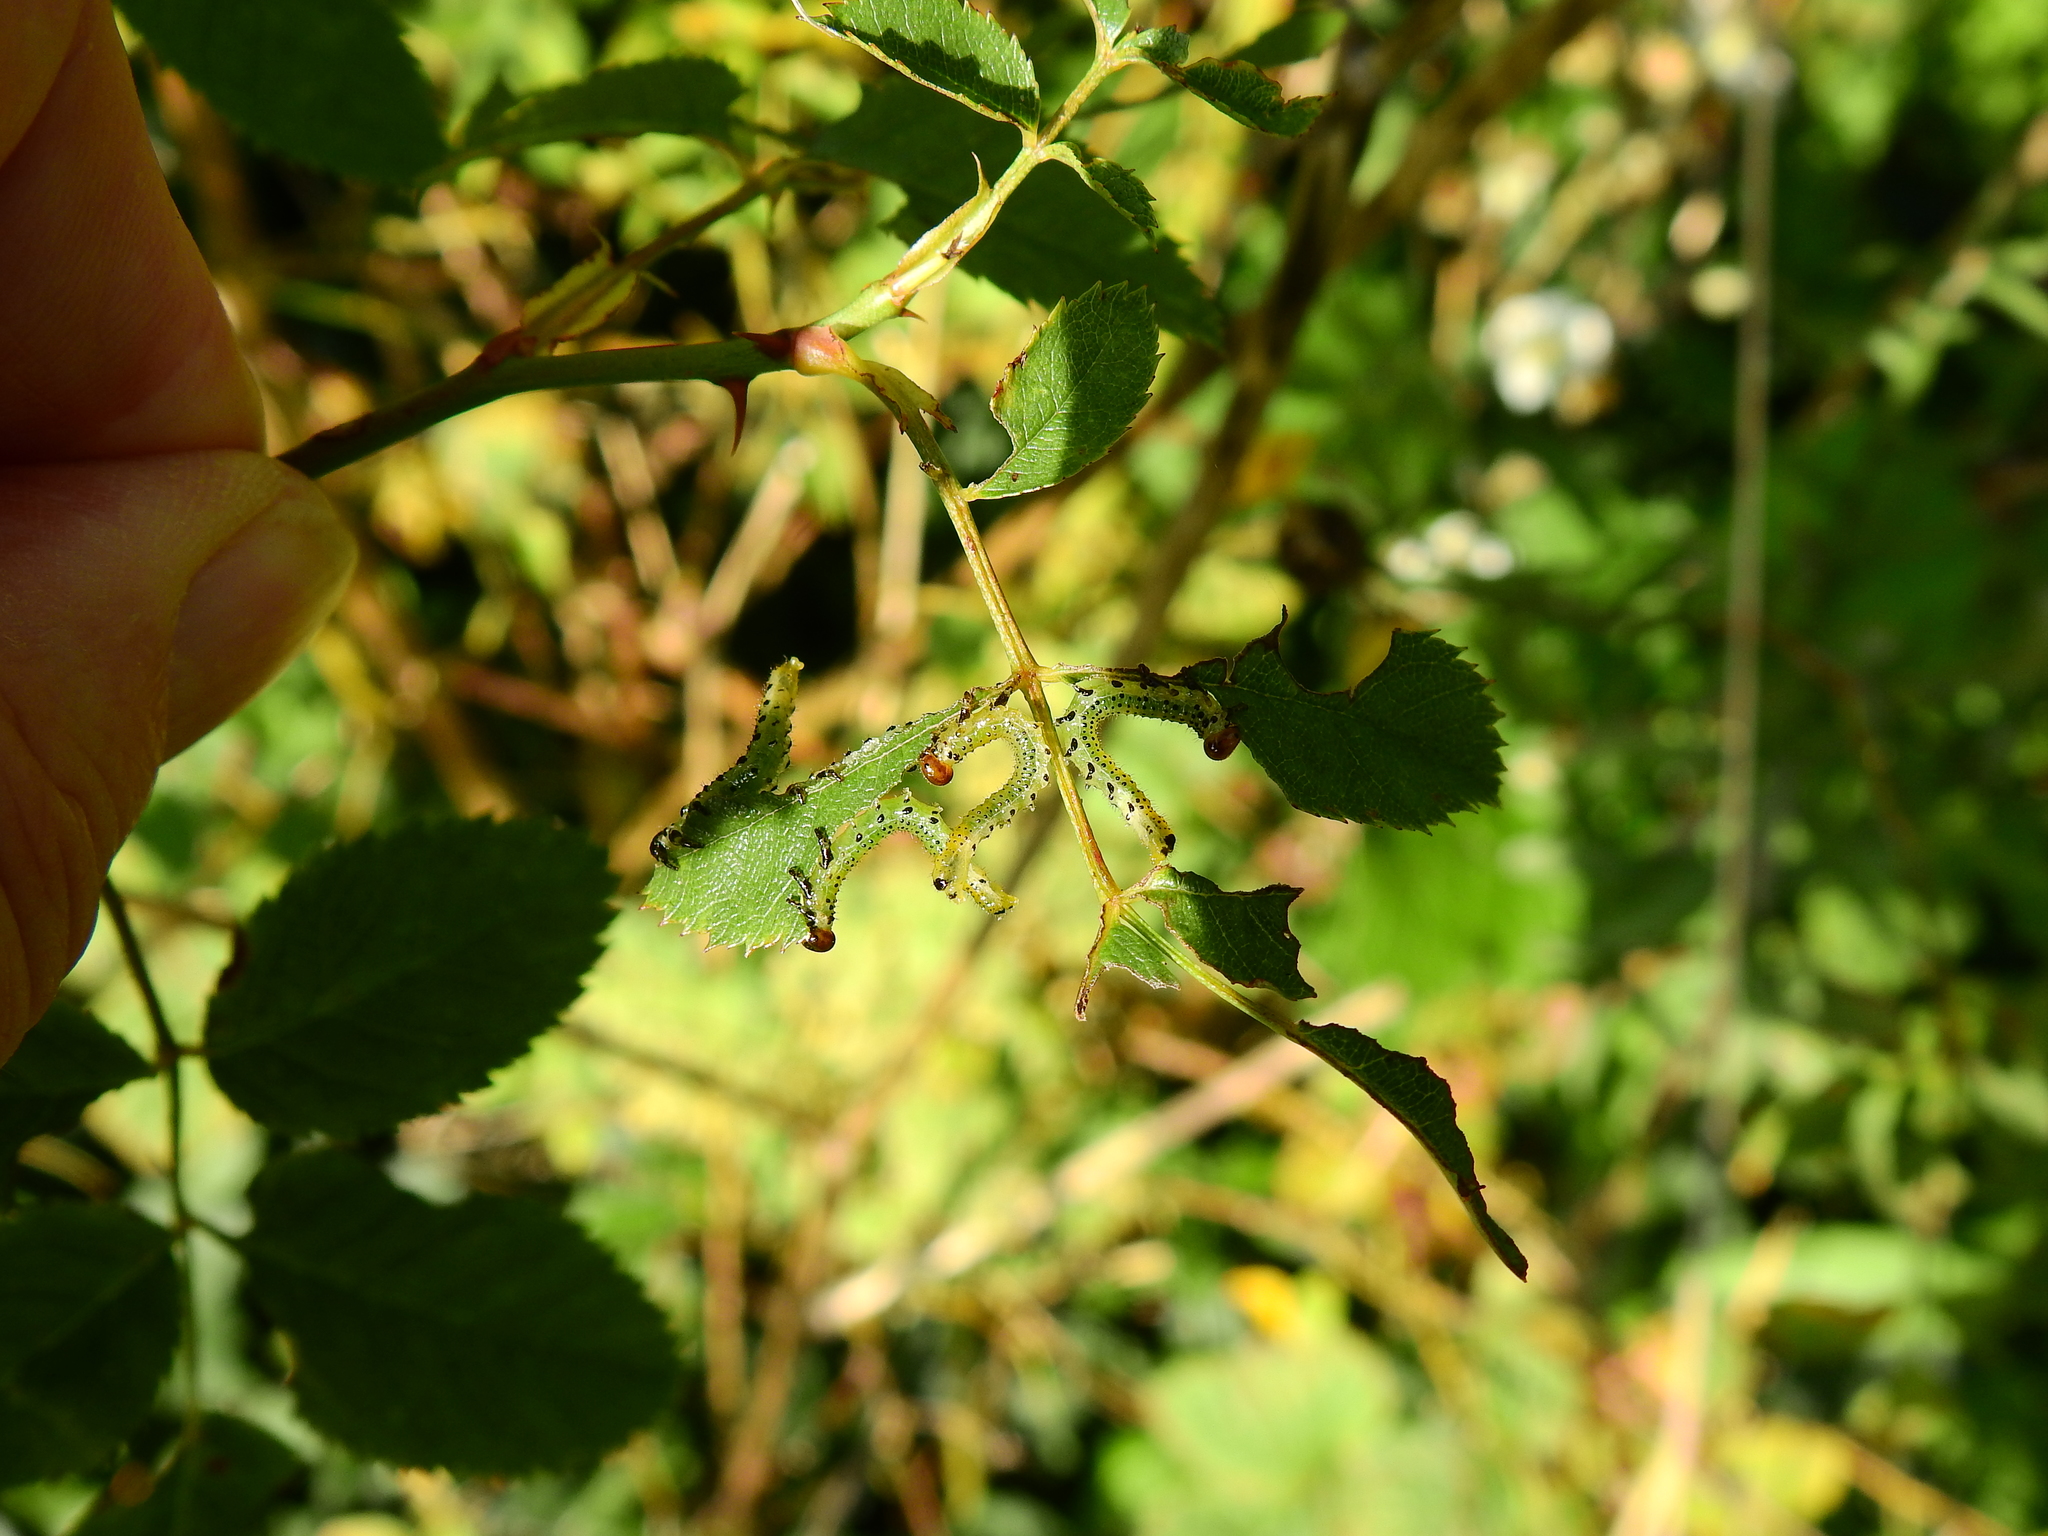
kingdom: Animalia
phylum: Arthropoda
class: Insecta
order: Hymenoptera
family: Argidae
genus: Arge
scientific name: Arge ochropus
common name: Argid sawfly
